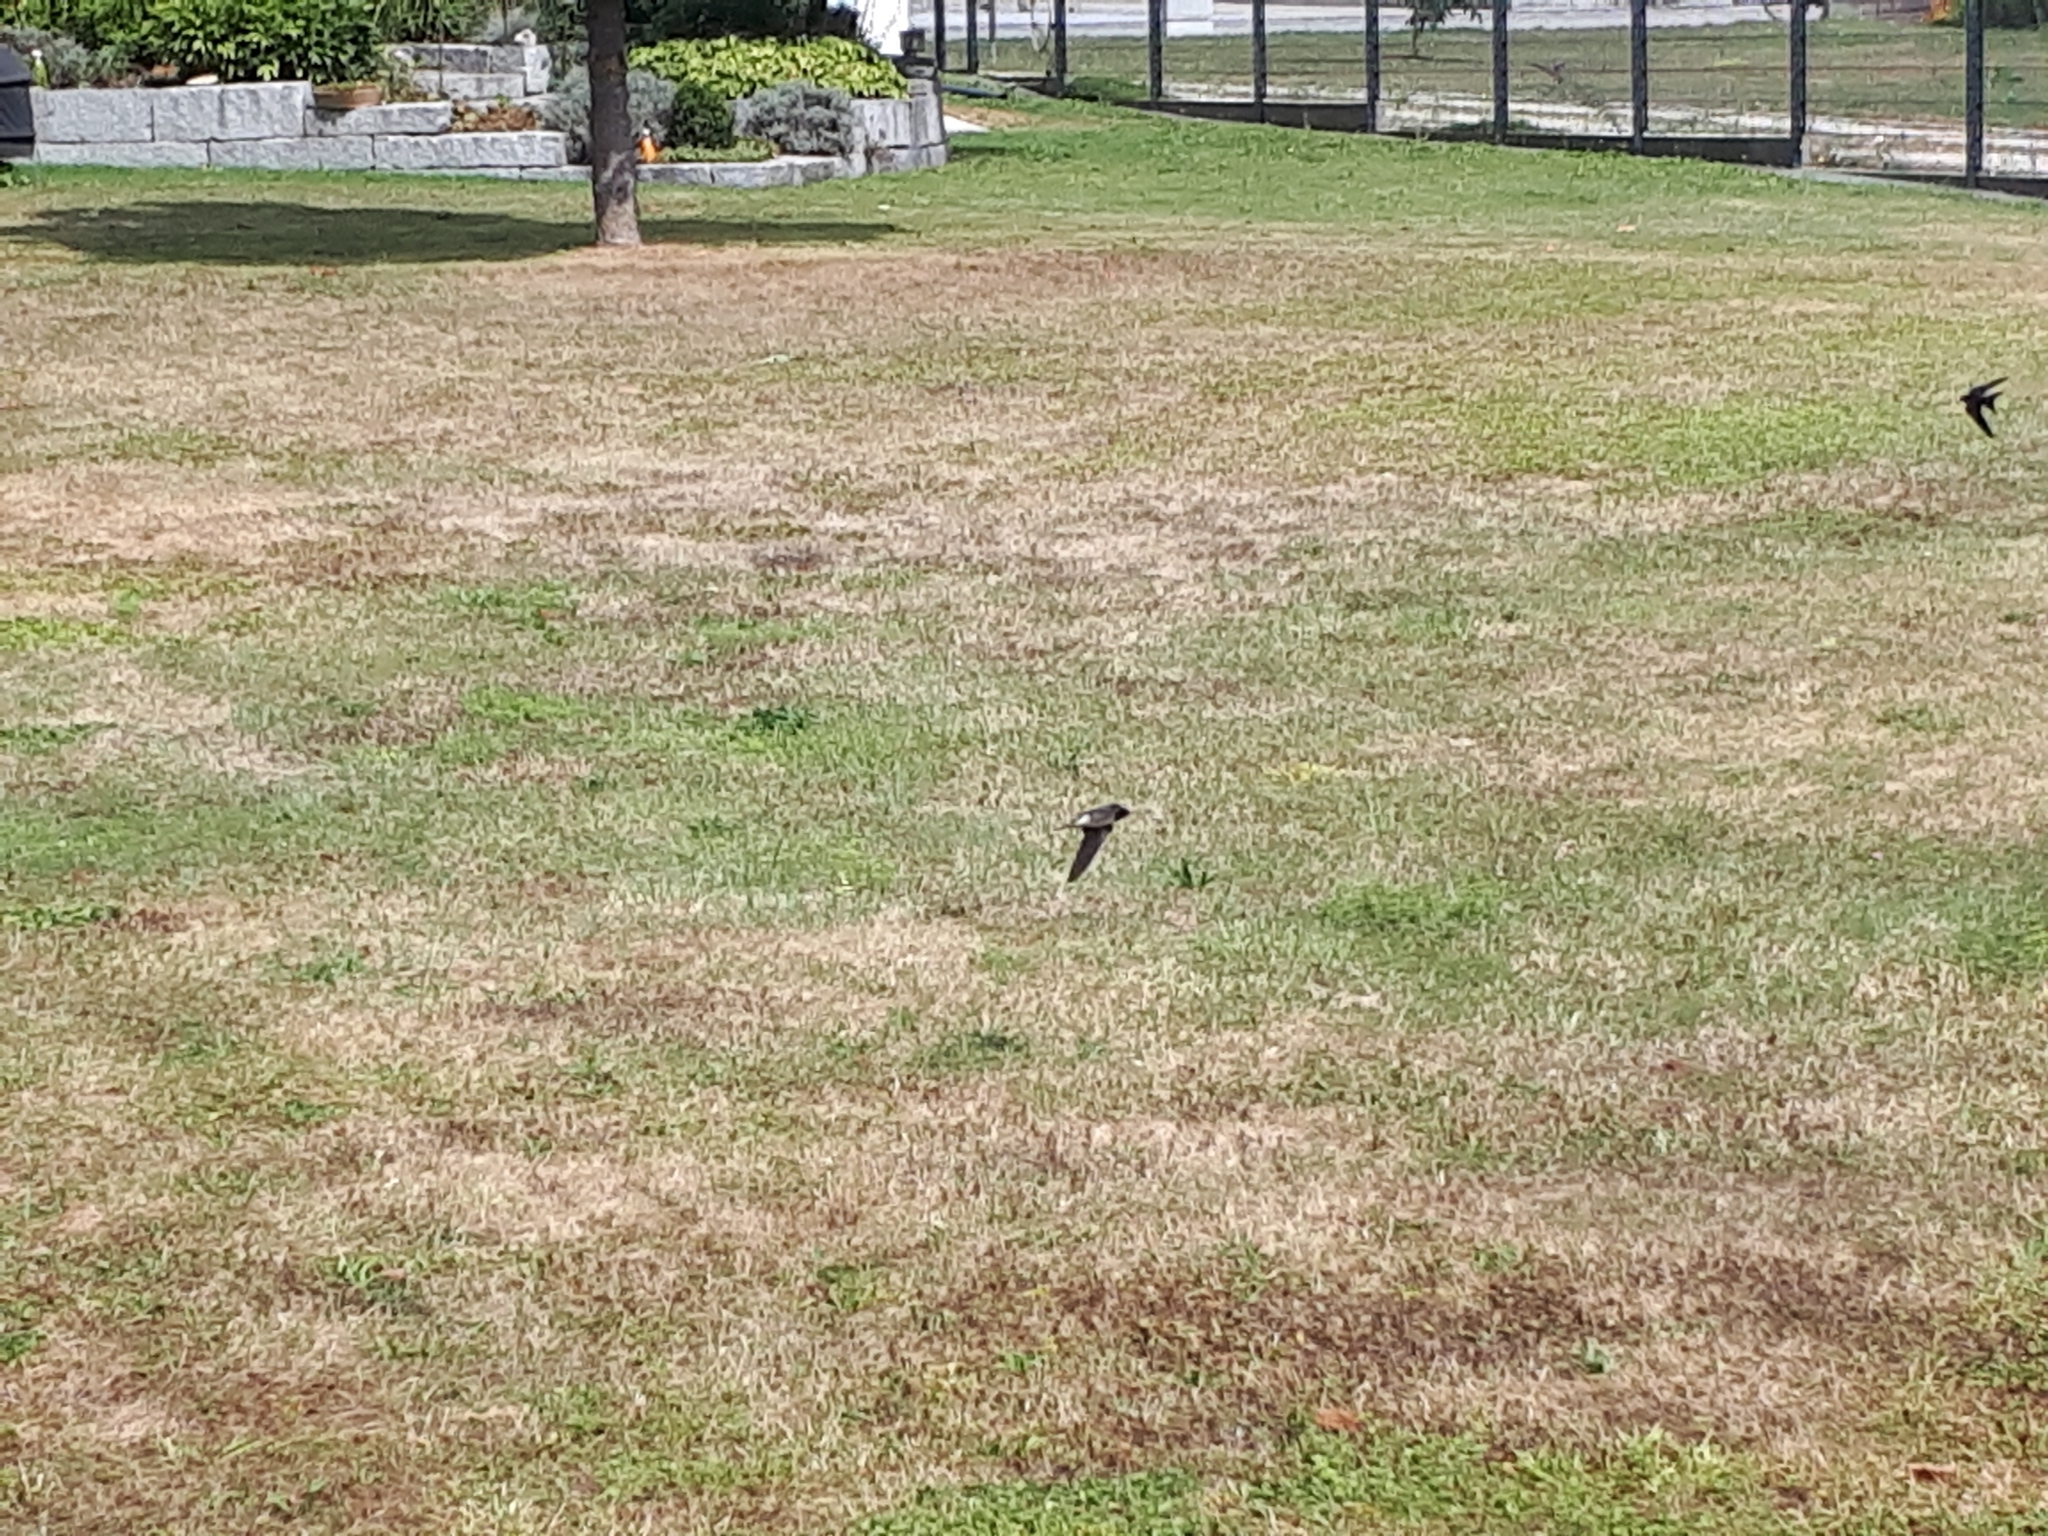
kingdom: Animalia
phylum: Chordata
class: Aves
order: Passeriformes
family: Hirundinidae
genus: Hirundo
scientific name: Hirundo rustica
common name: Barn swallow
